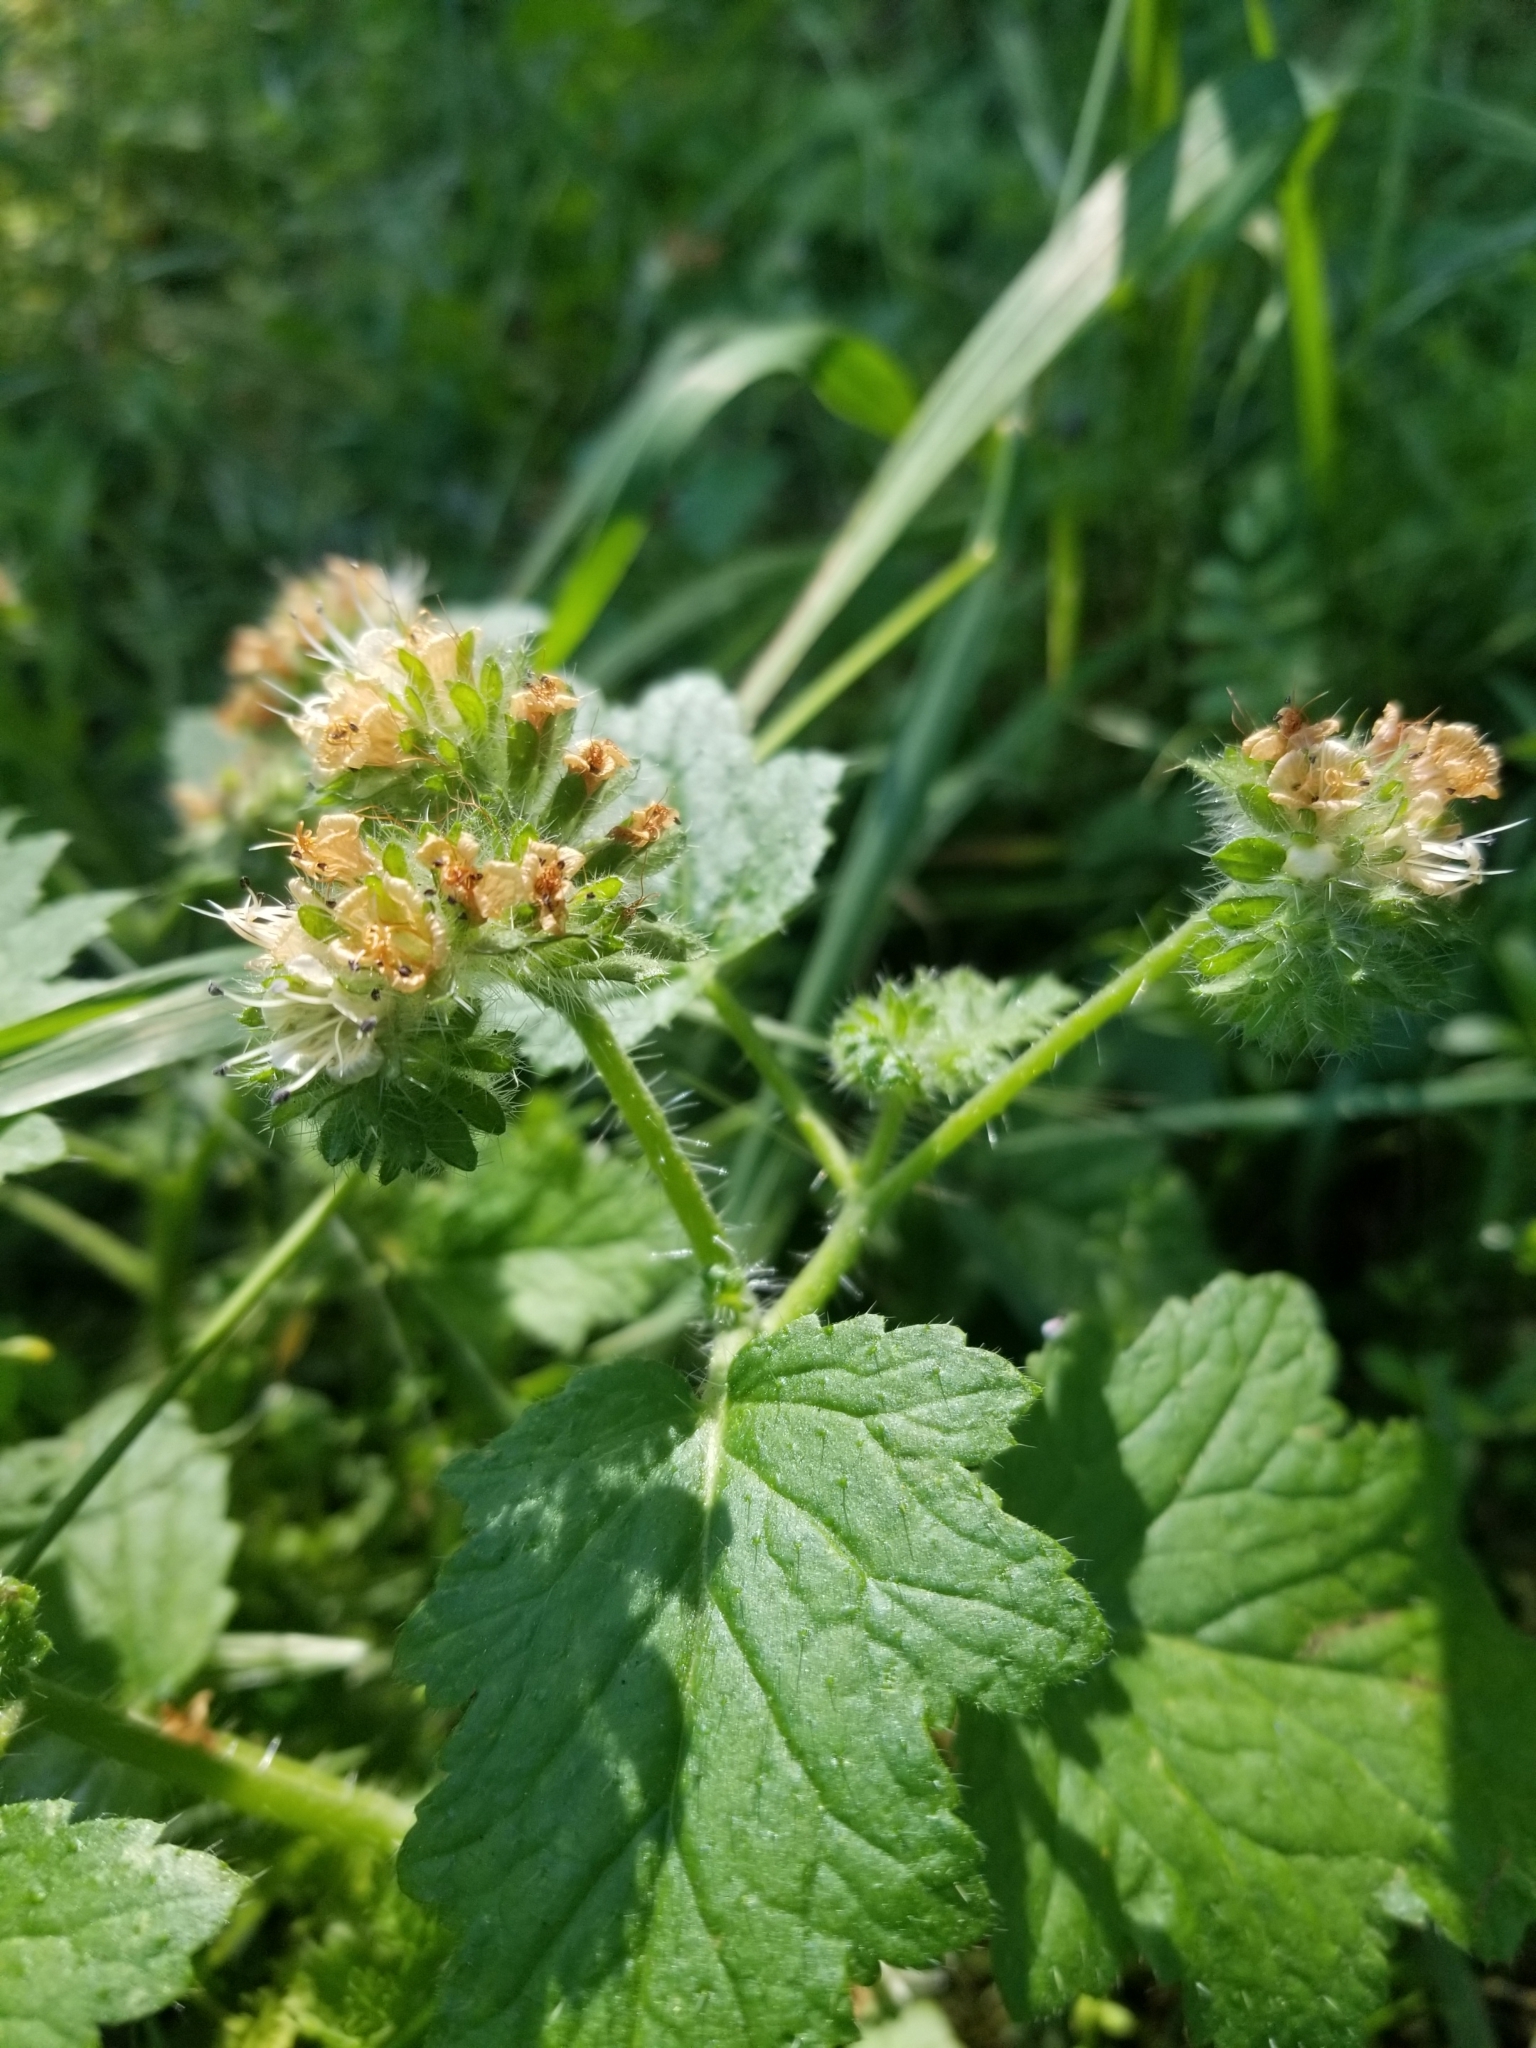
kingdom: Plantae
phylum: Tracheophyta
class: Magnoliopsida
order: Boraginales
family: Hydrophyllaceae
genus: Phacelia
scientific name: Phacelia malvifolia
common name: Mallow-leaf phacelia
